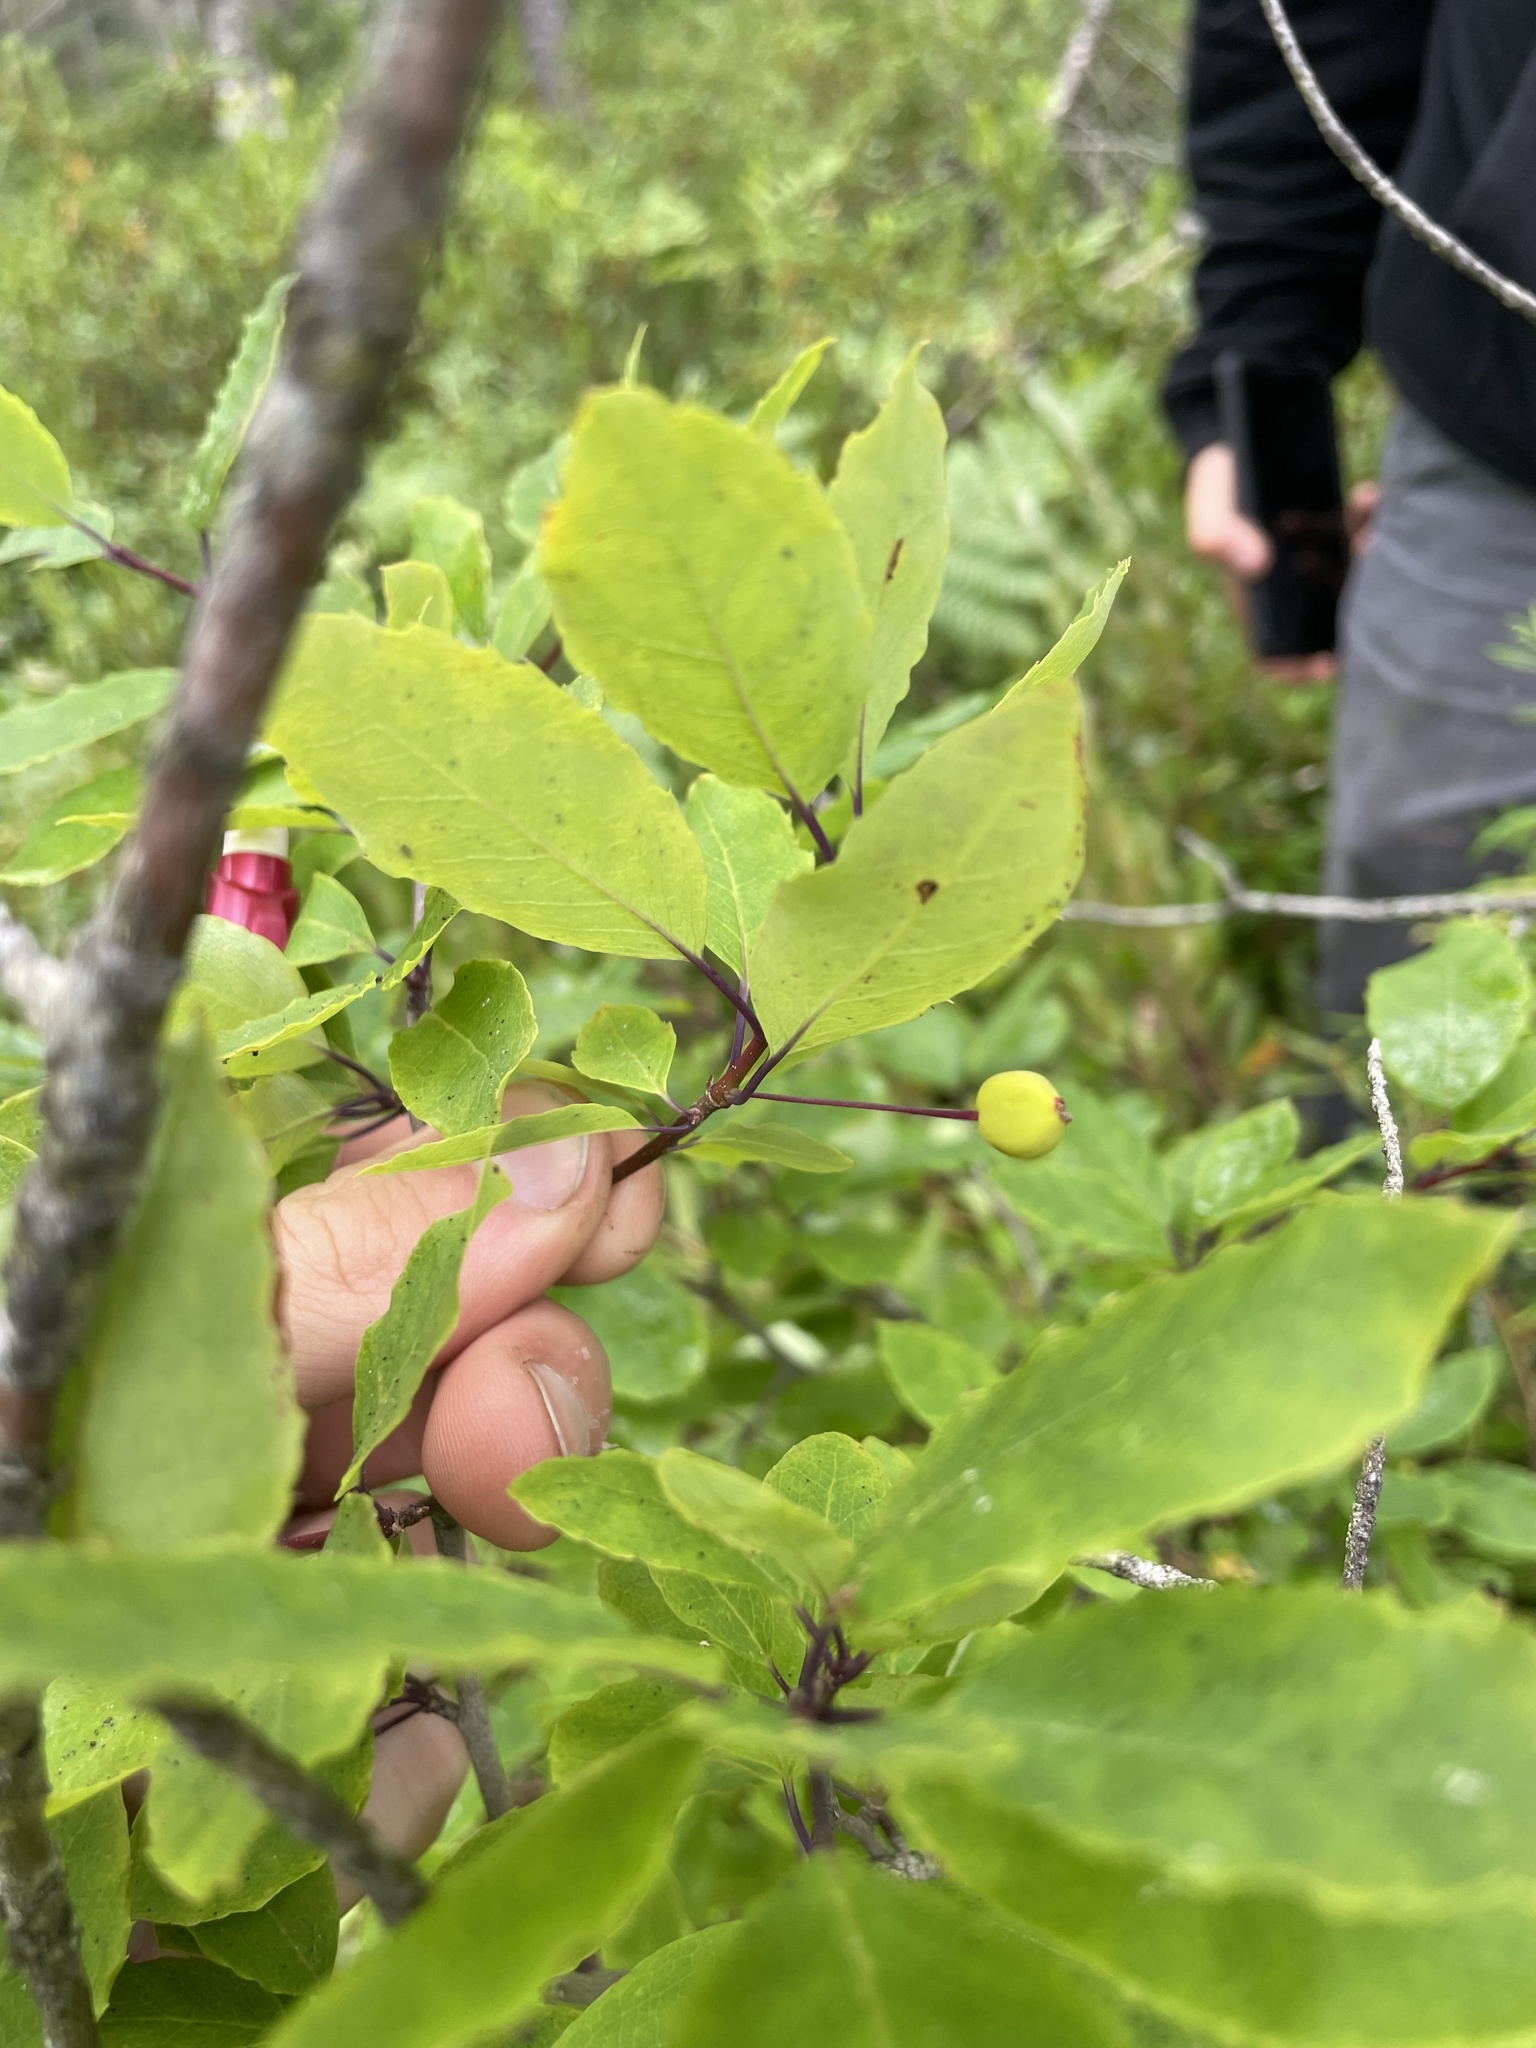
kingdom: Plantae
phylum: Tracheophyta
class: Magnoliopsida
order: Aquifoliales
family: Aquifoliaceae
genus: Ilex
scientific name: Ilex mucronata
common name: Catberry
